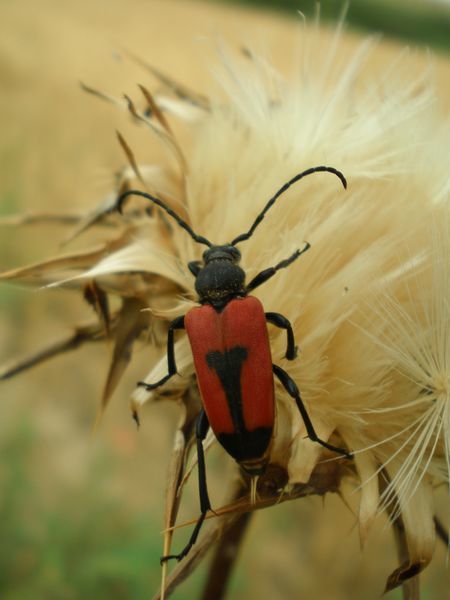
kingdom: Animalia
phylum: Arthropoda
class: Insecta
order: Coleoptera
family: Cerambycidae
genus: Stictoleptura
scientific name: Stictoleptura cordigera
